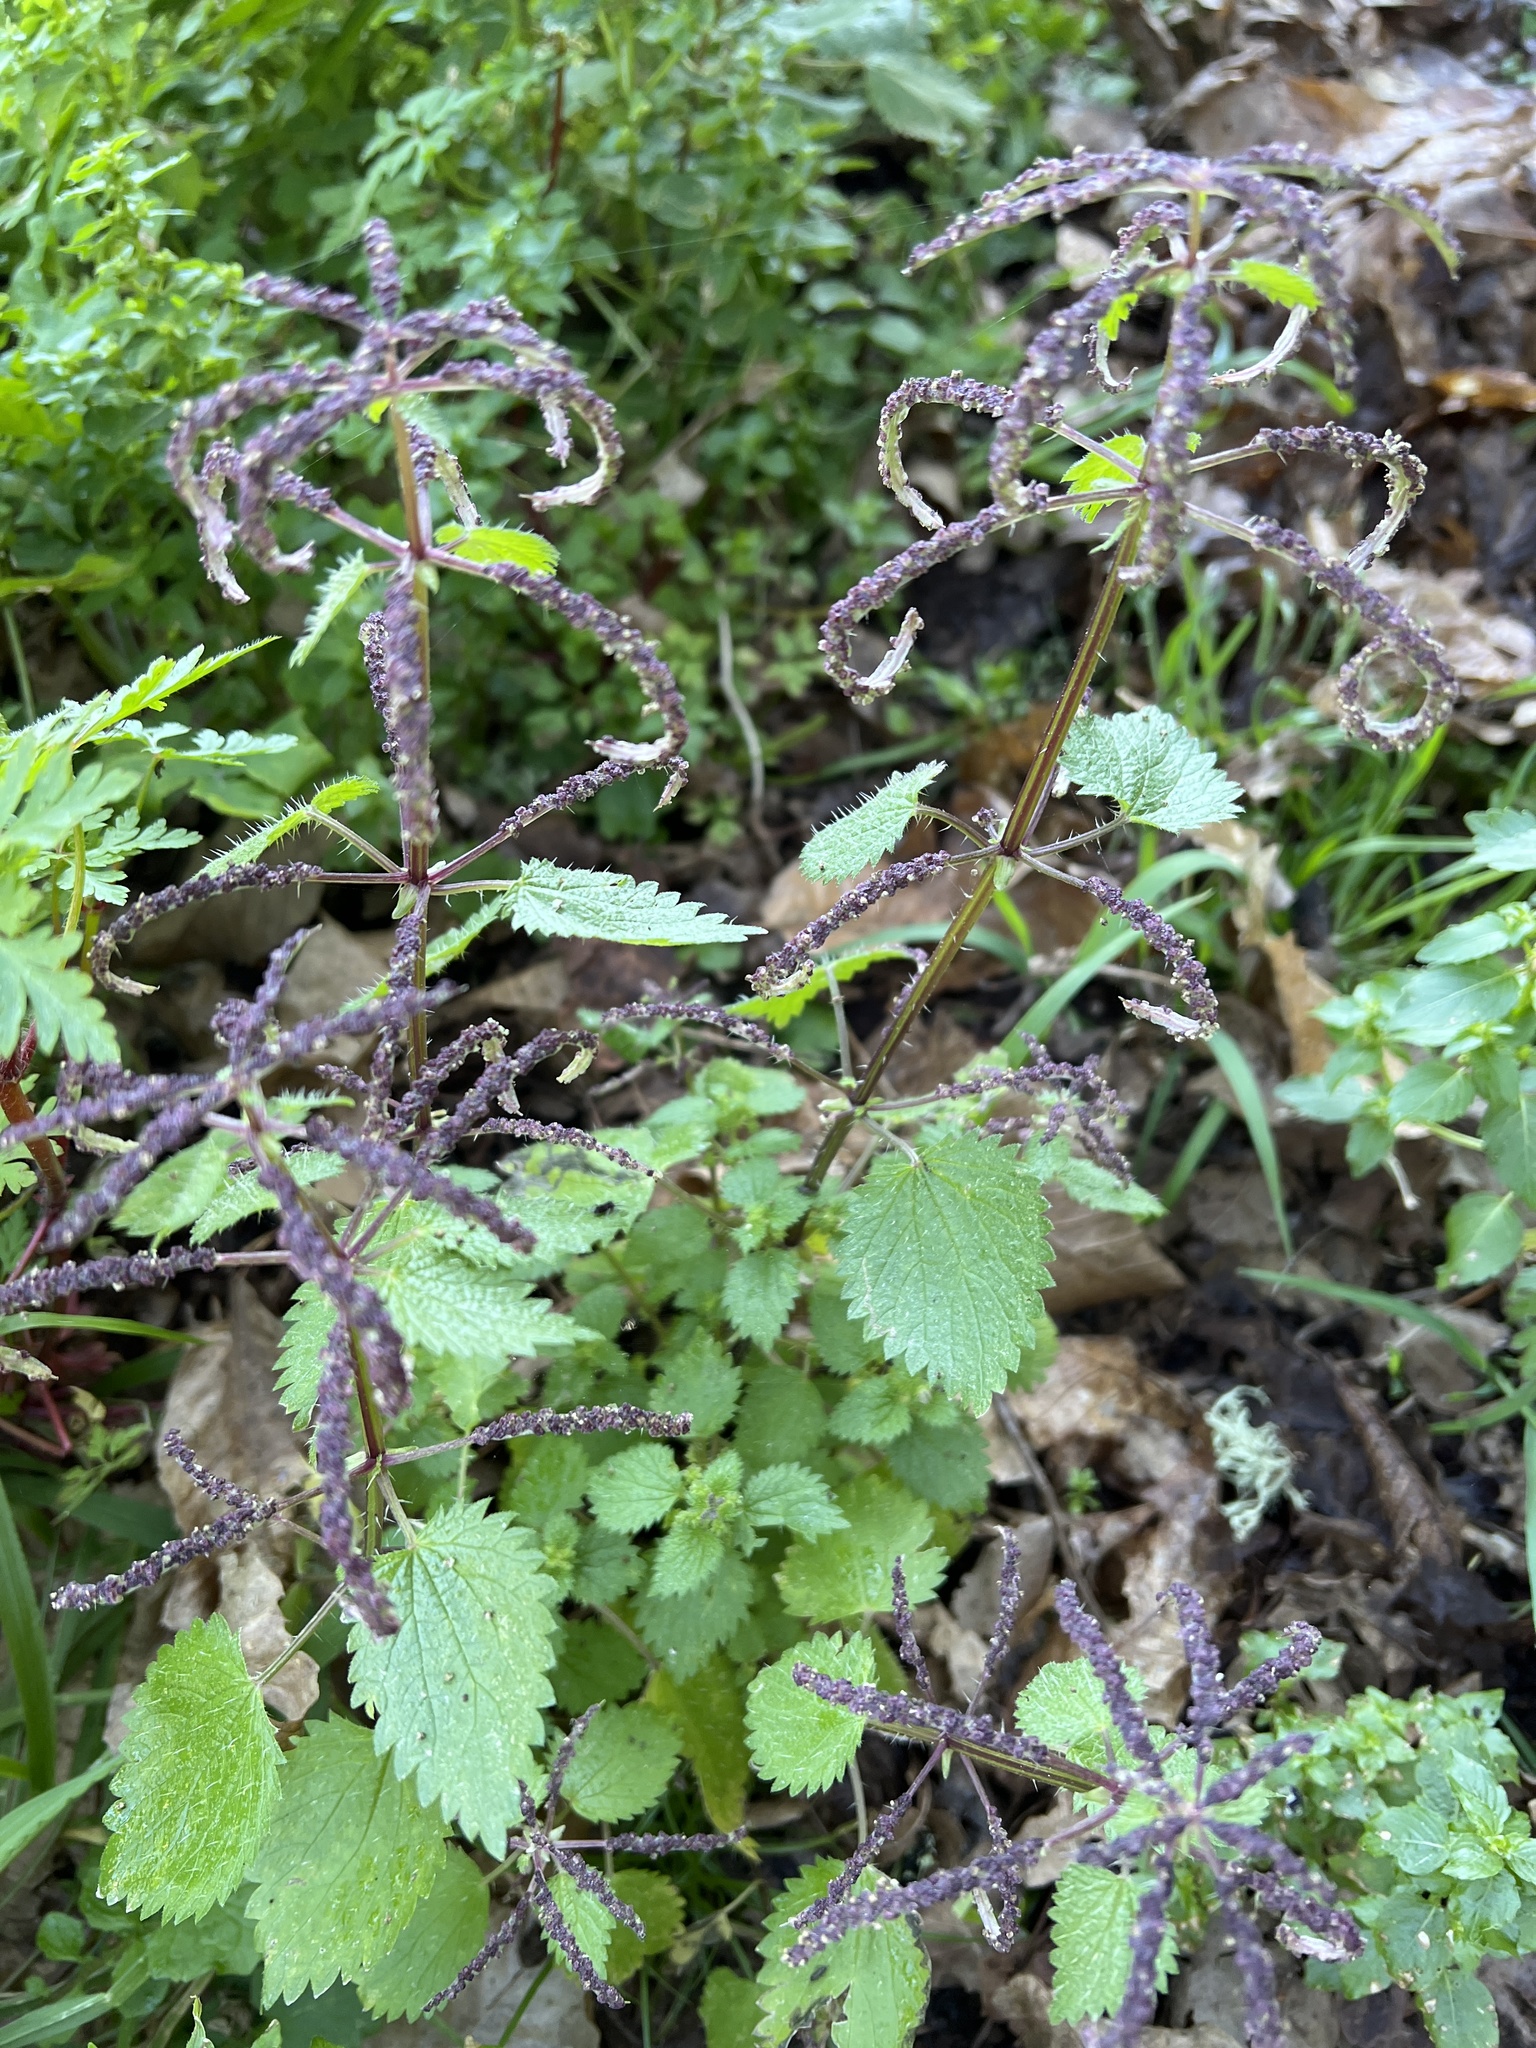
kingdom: Plantae
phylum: Tracheophyta
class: Magnoliopsida
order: Rosales
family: Urticaceae
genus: Urtica
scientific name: Urtica membranacea
